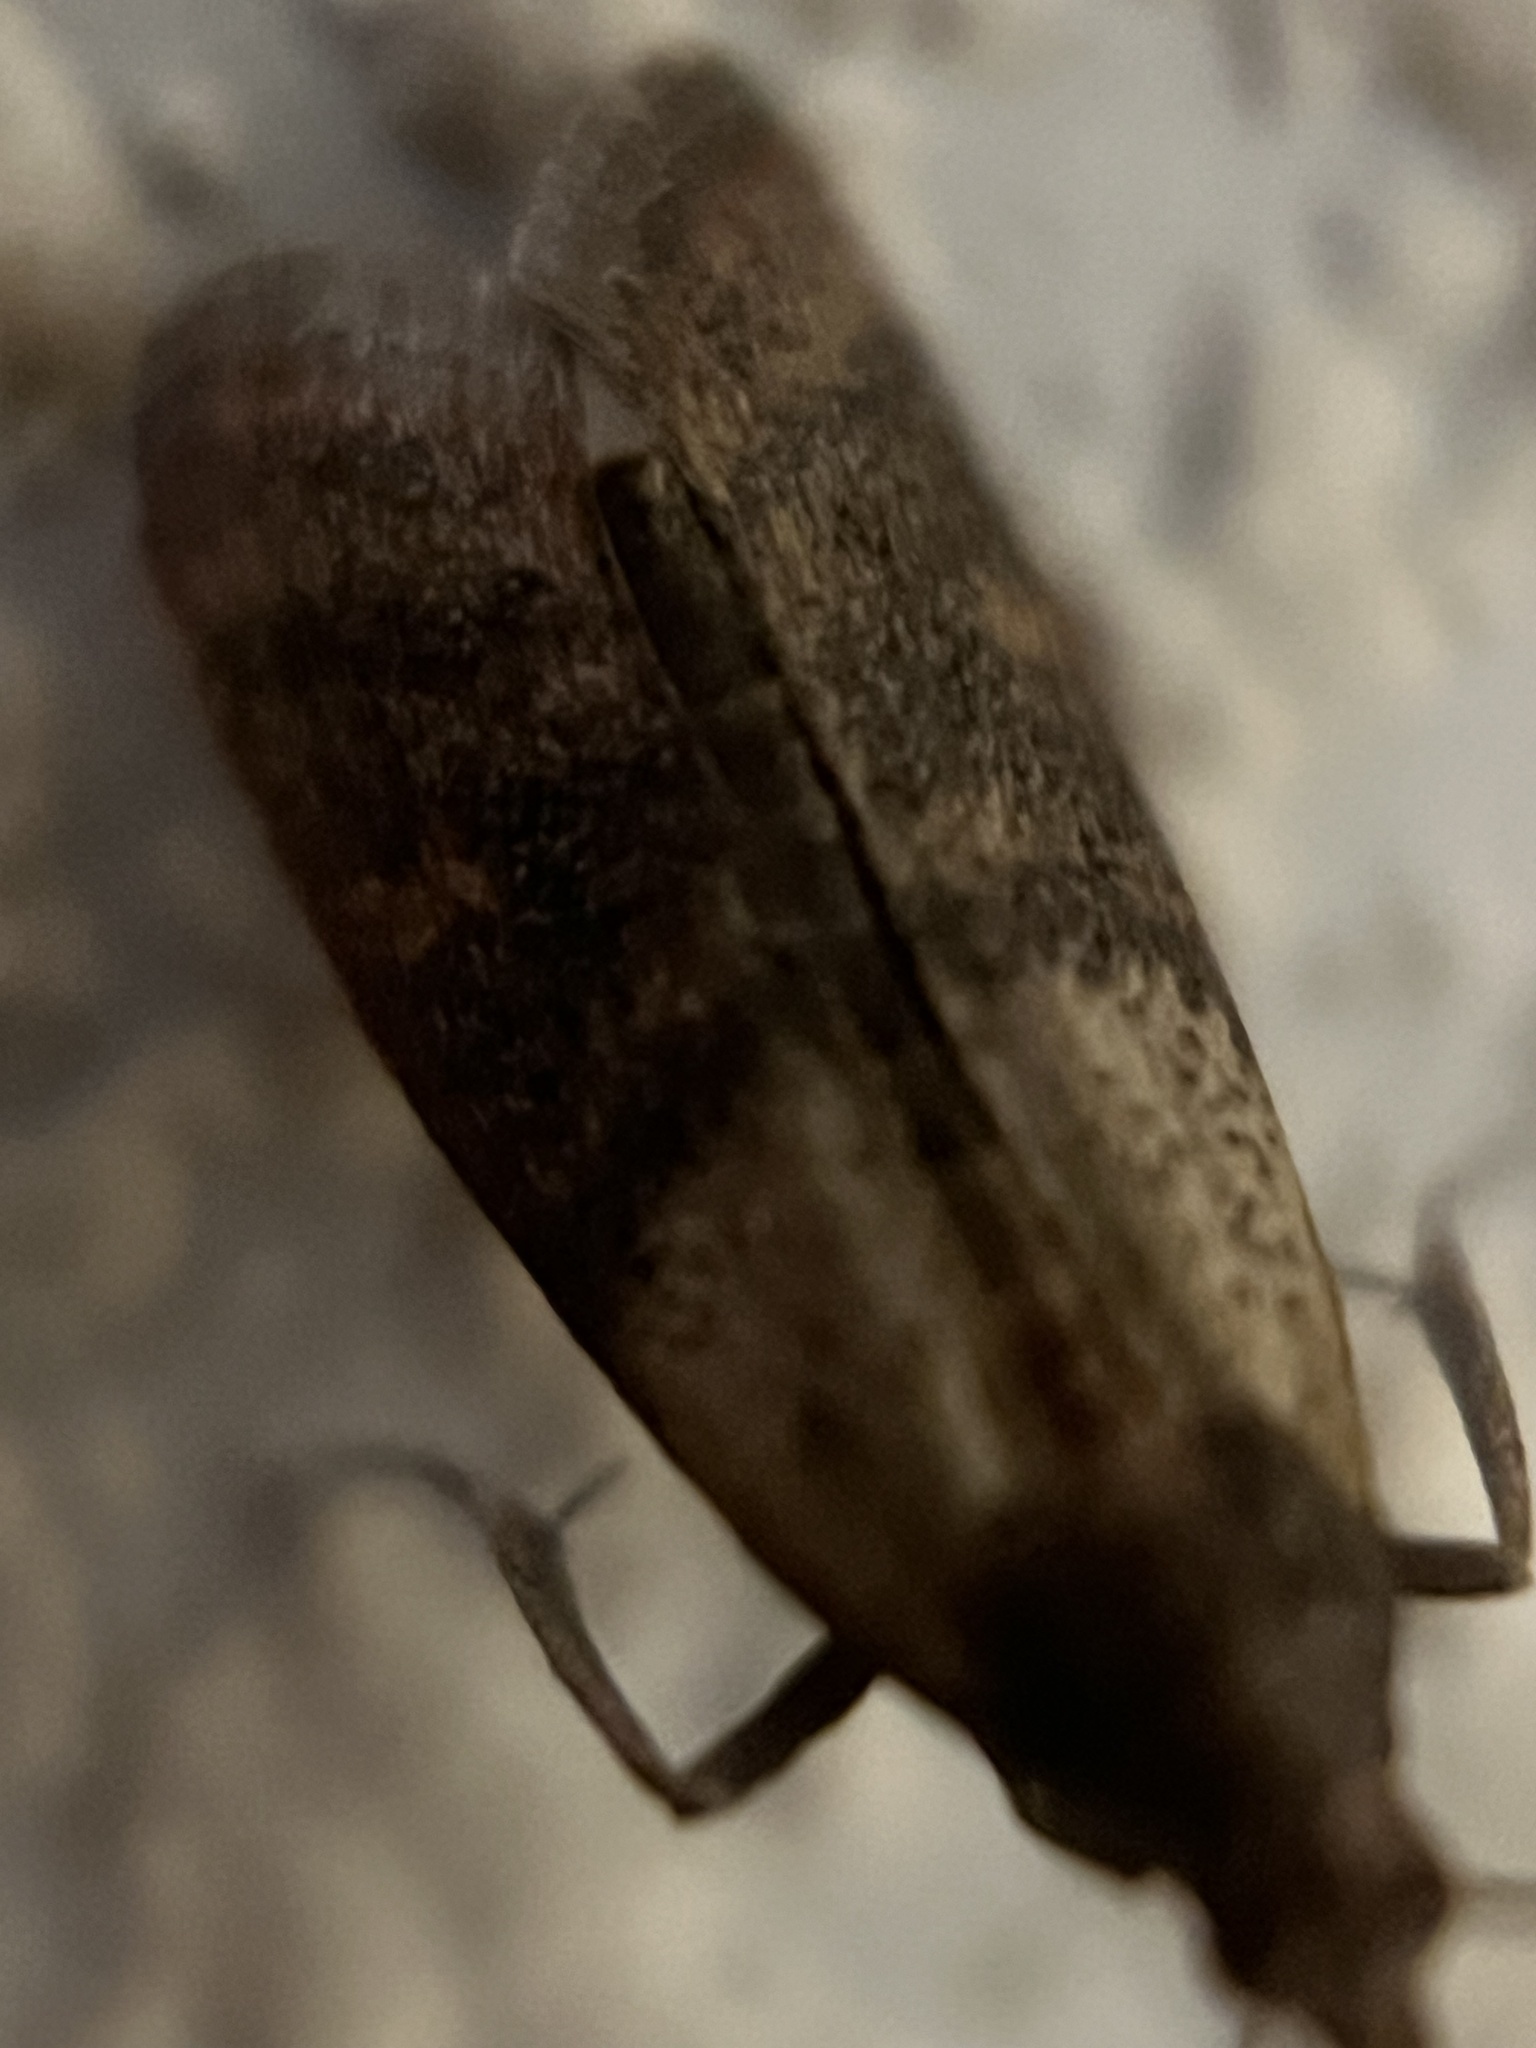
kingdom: Animalia
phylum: Arthropoda
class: Insecta
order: Lepidoptera
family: Pyralidae
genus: Plodia
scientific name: Plodia interpunctella
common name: Indian meal moth
